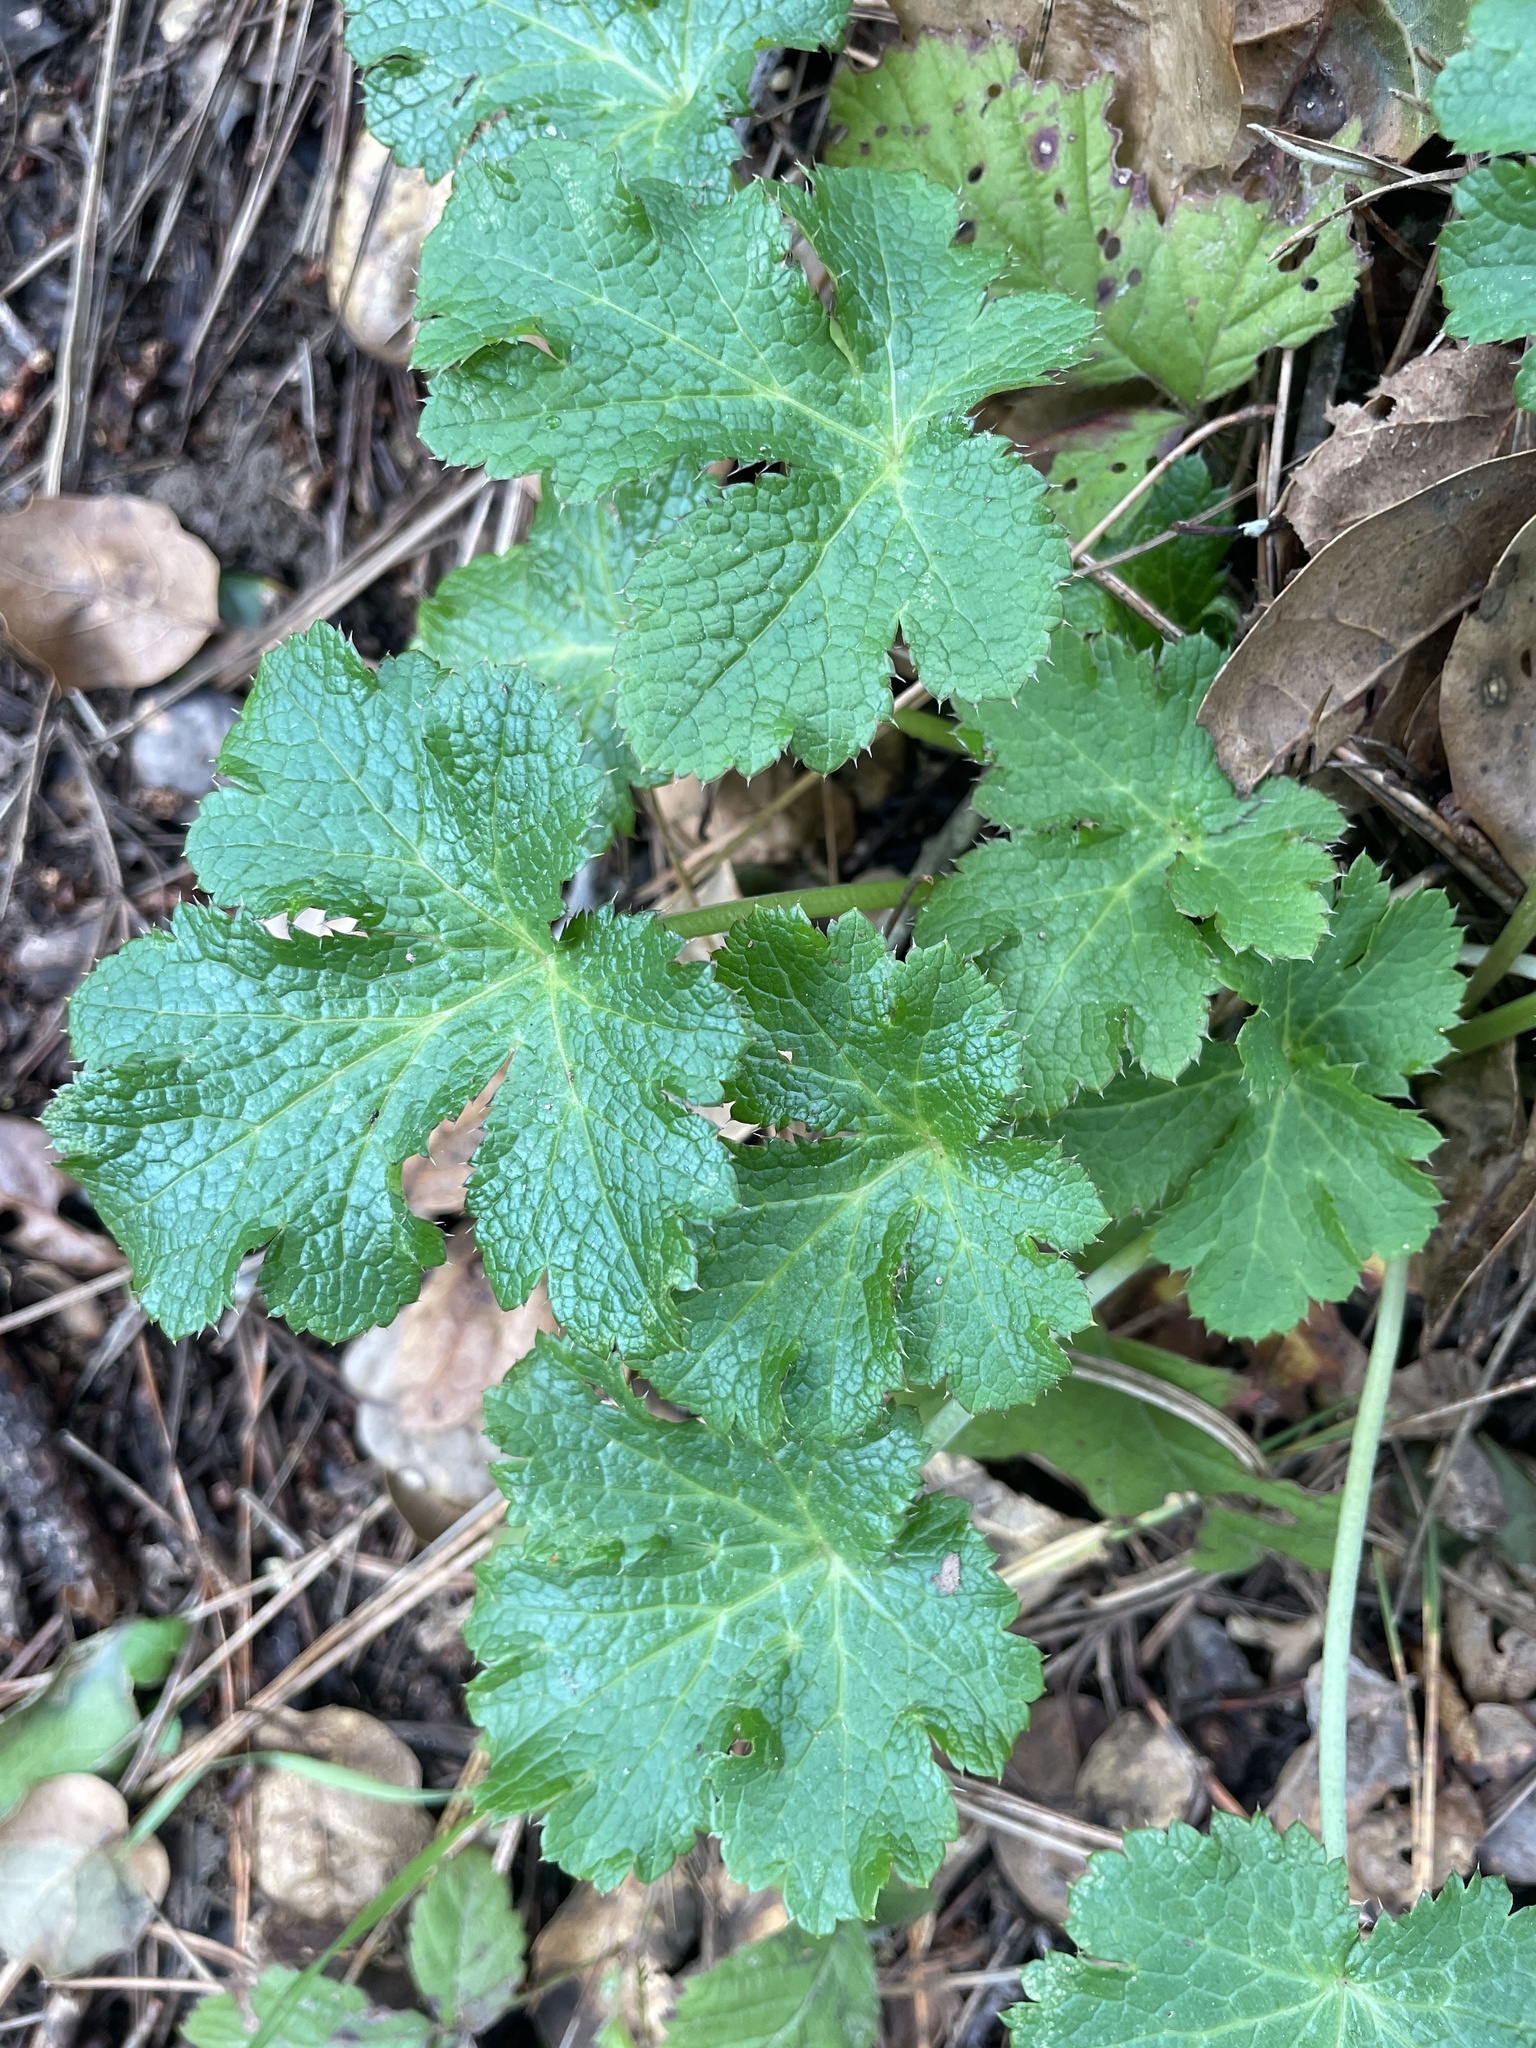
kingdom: Plantae
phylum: Tracheophyta
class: Magnoliopsida
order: Apiales
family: Apiaceae
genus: Sanicula
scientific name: Sanicula crassicaulis
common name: Western snakeroot
